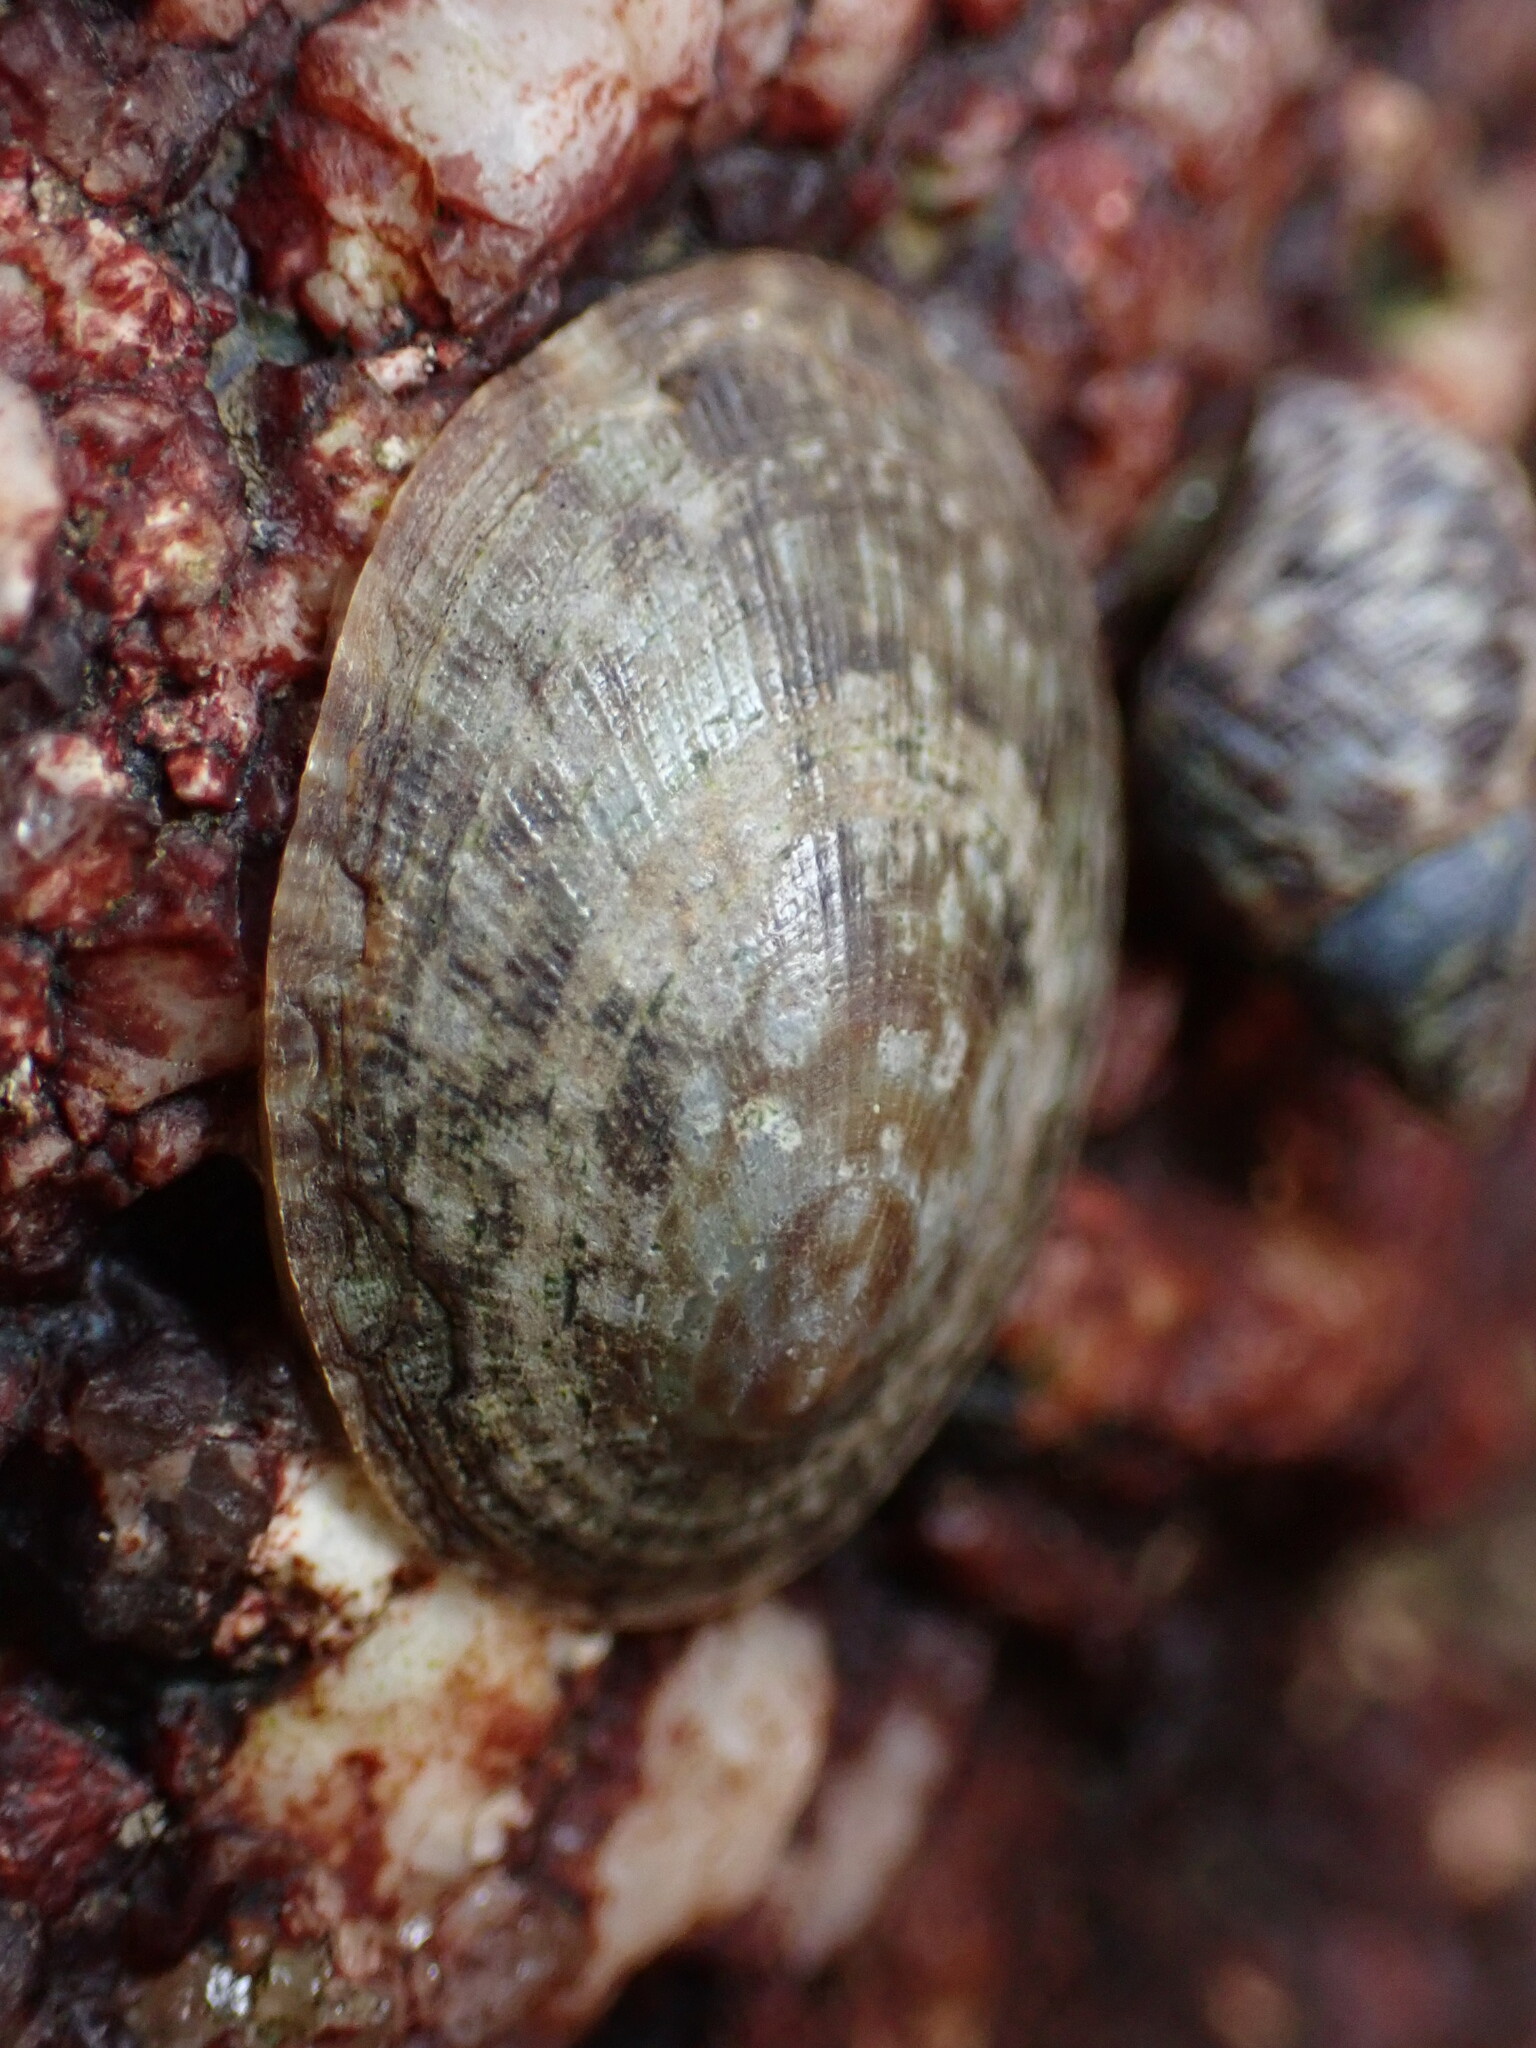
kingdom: Animalia
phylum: Mollusca
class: Gastropoda
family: Nacellidae
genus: Cellana
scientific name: Cellana toreuma
